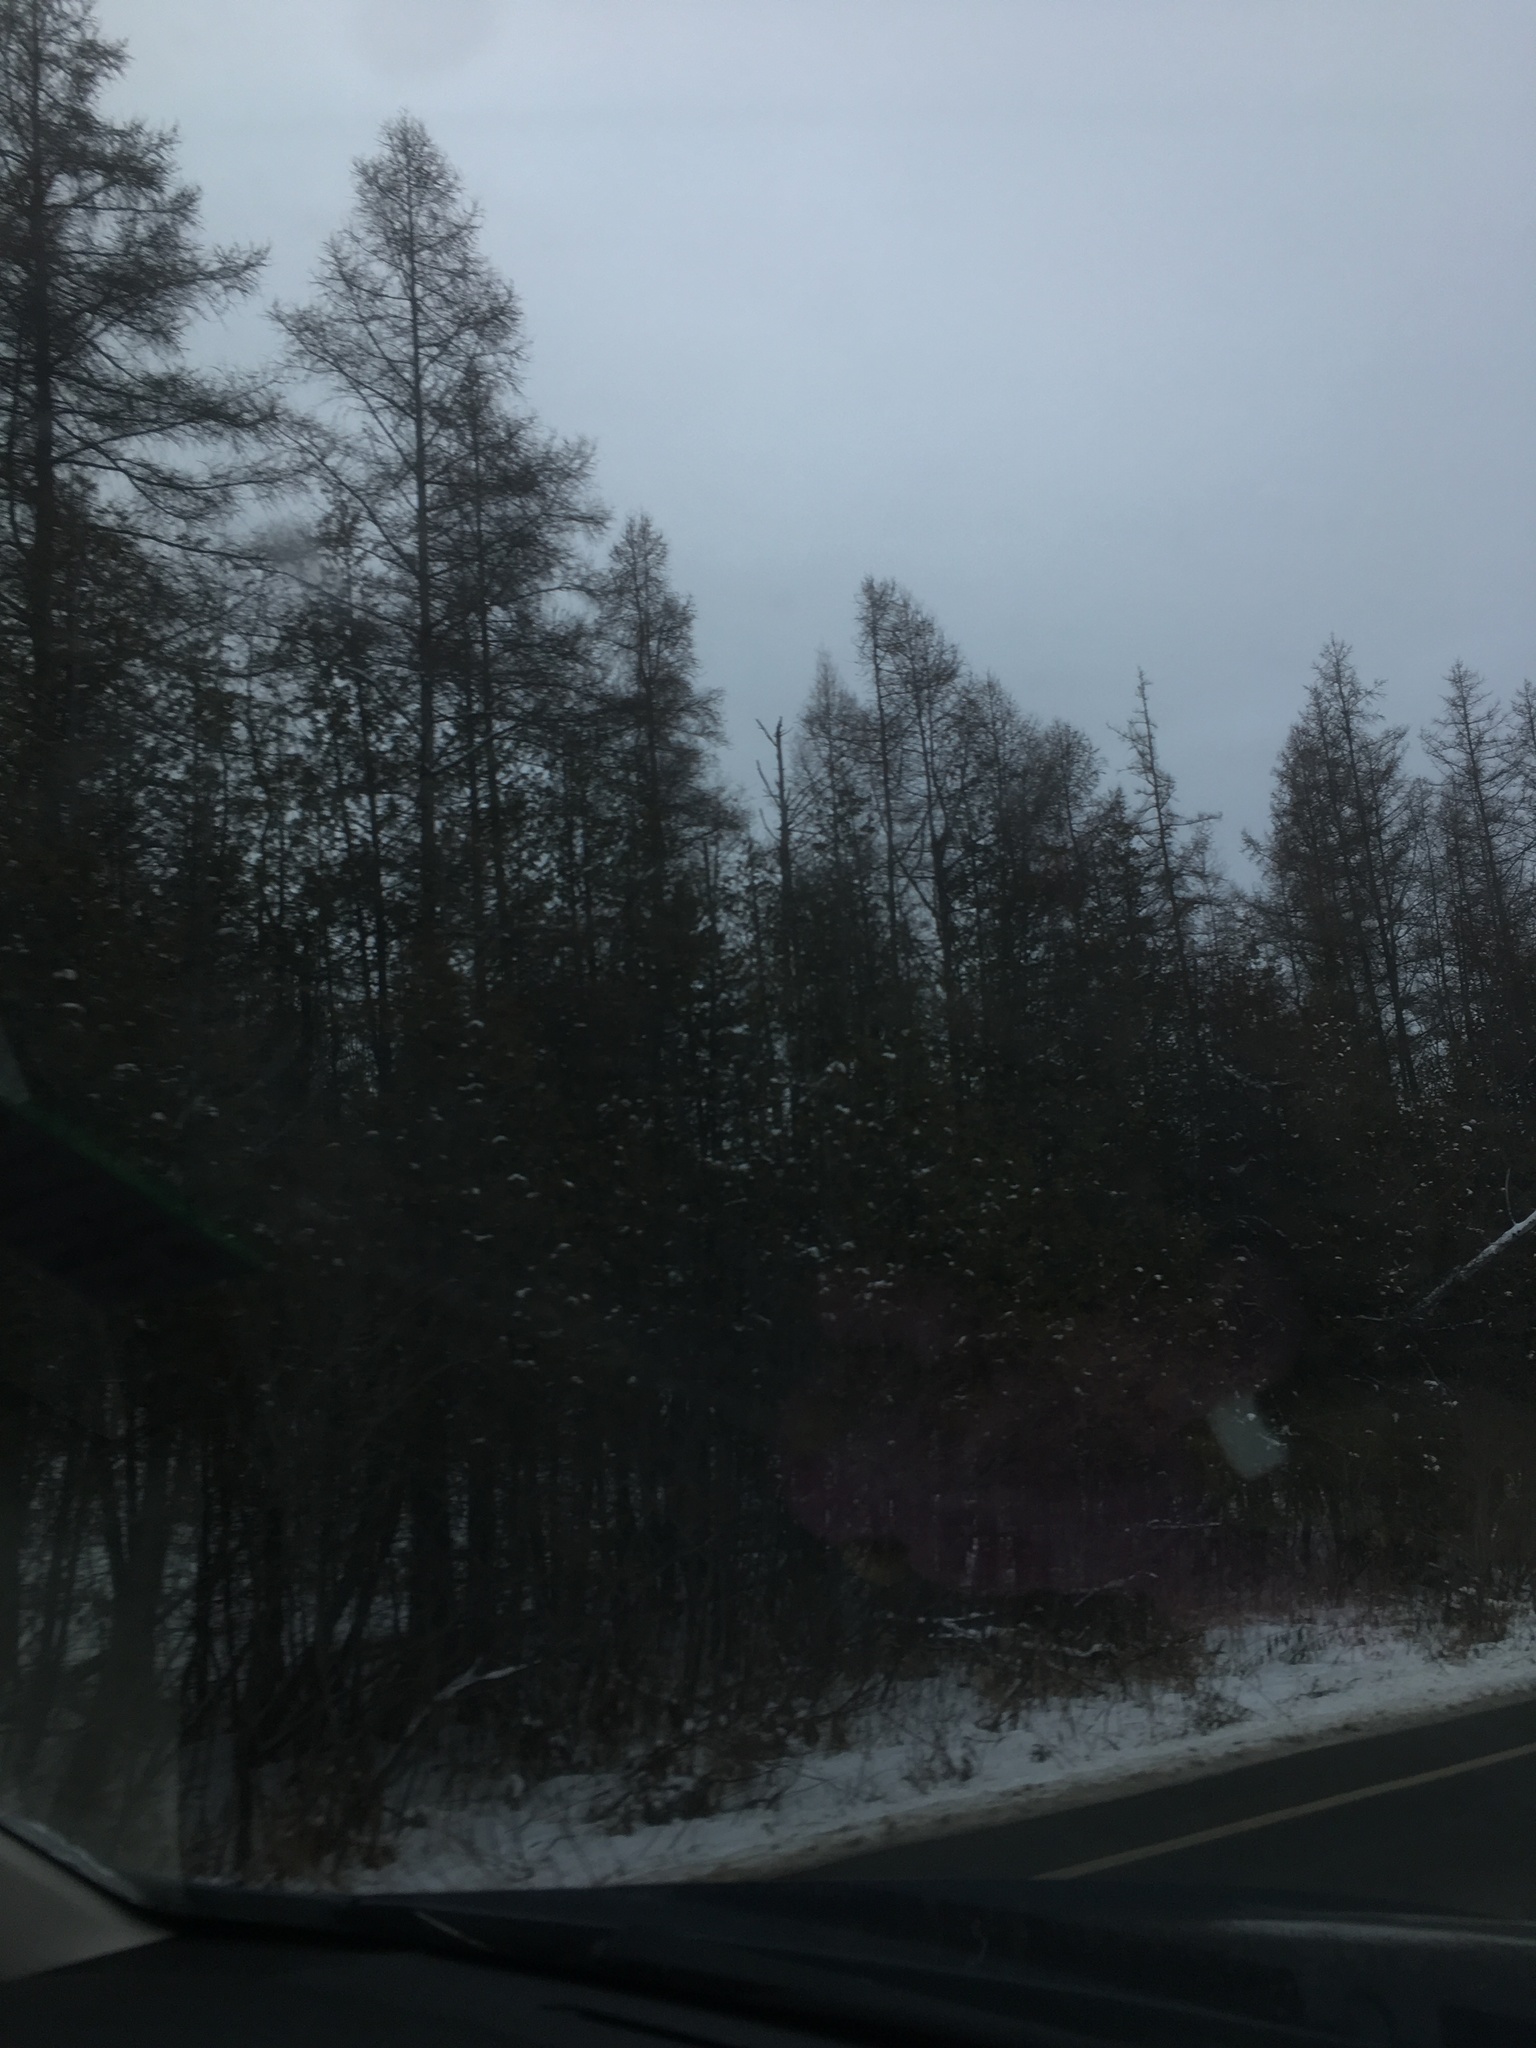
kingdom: Plantae
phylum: Tracheophyta
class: Pinopsida
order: Pinales
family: Pinaceae
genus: Larix
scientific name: Larix laricina
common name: American larch
